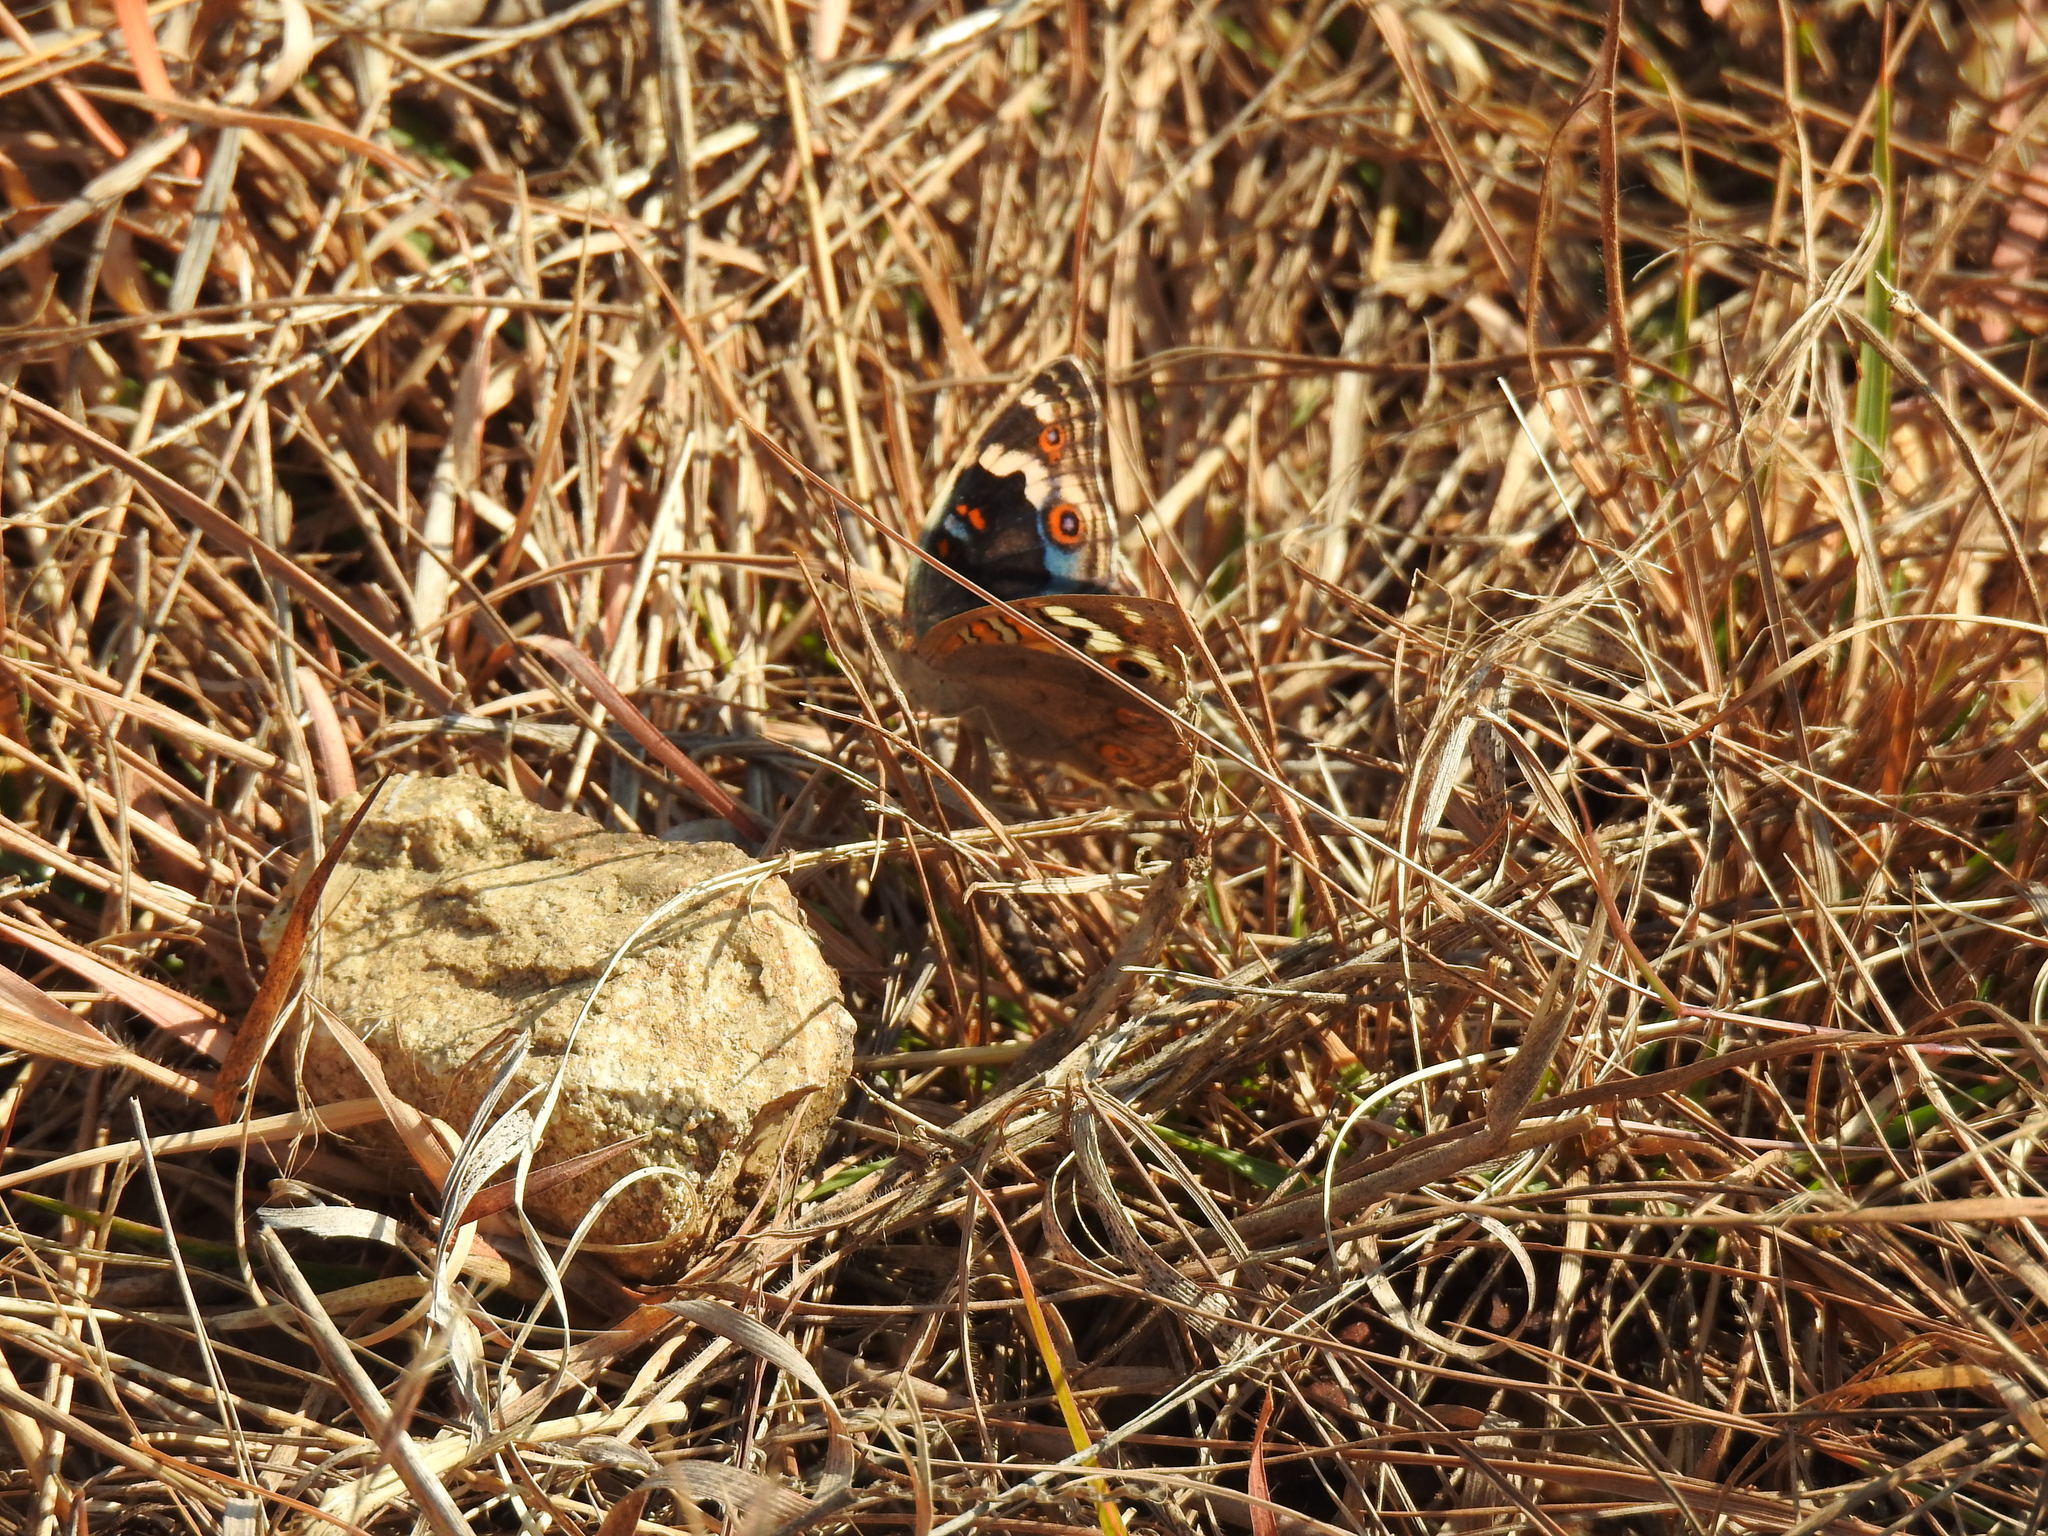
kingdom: Animalia
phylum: Arthropoda
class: Insecta
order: Lepidoptera
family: Nymphalidae
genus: Junonia
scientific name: Junonia orithya
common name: Blue pansy
